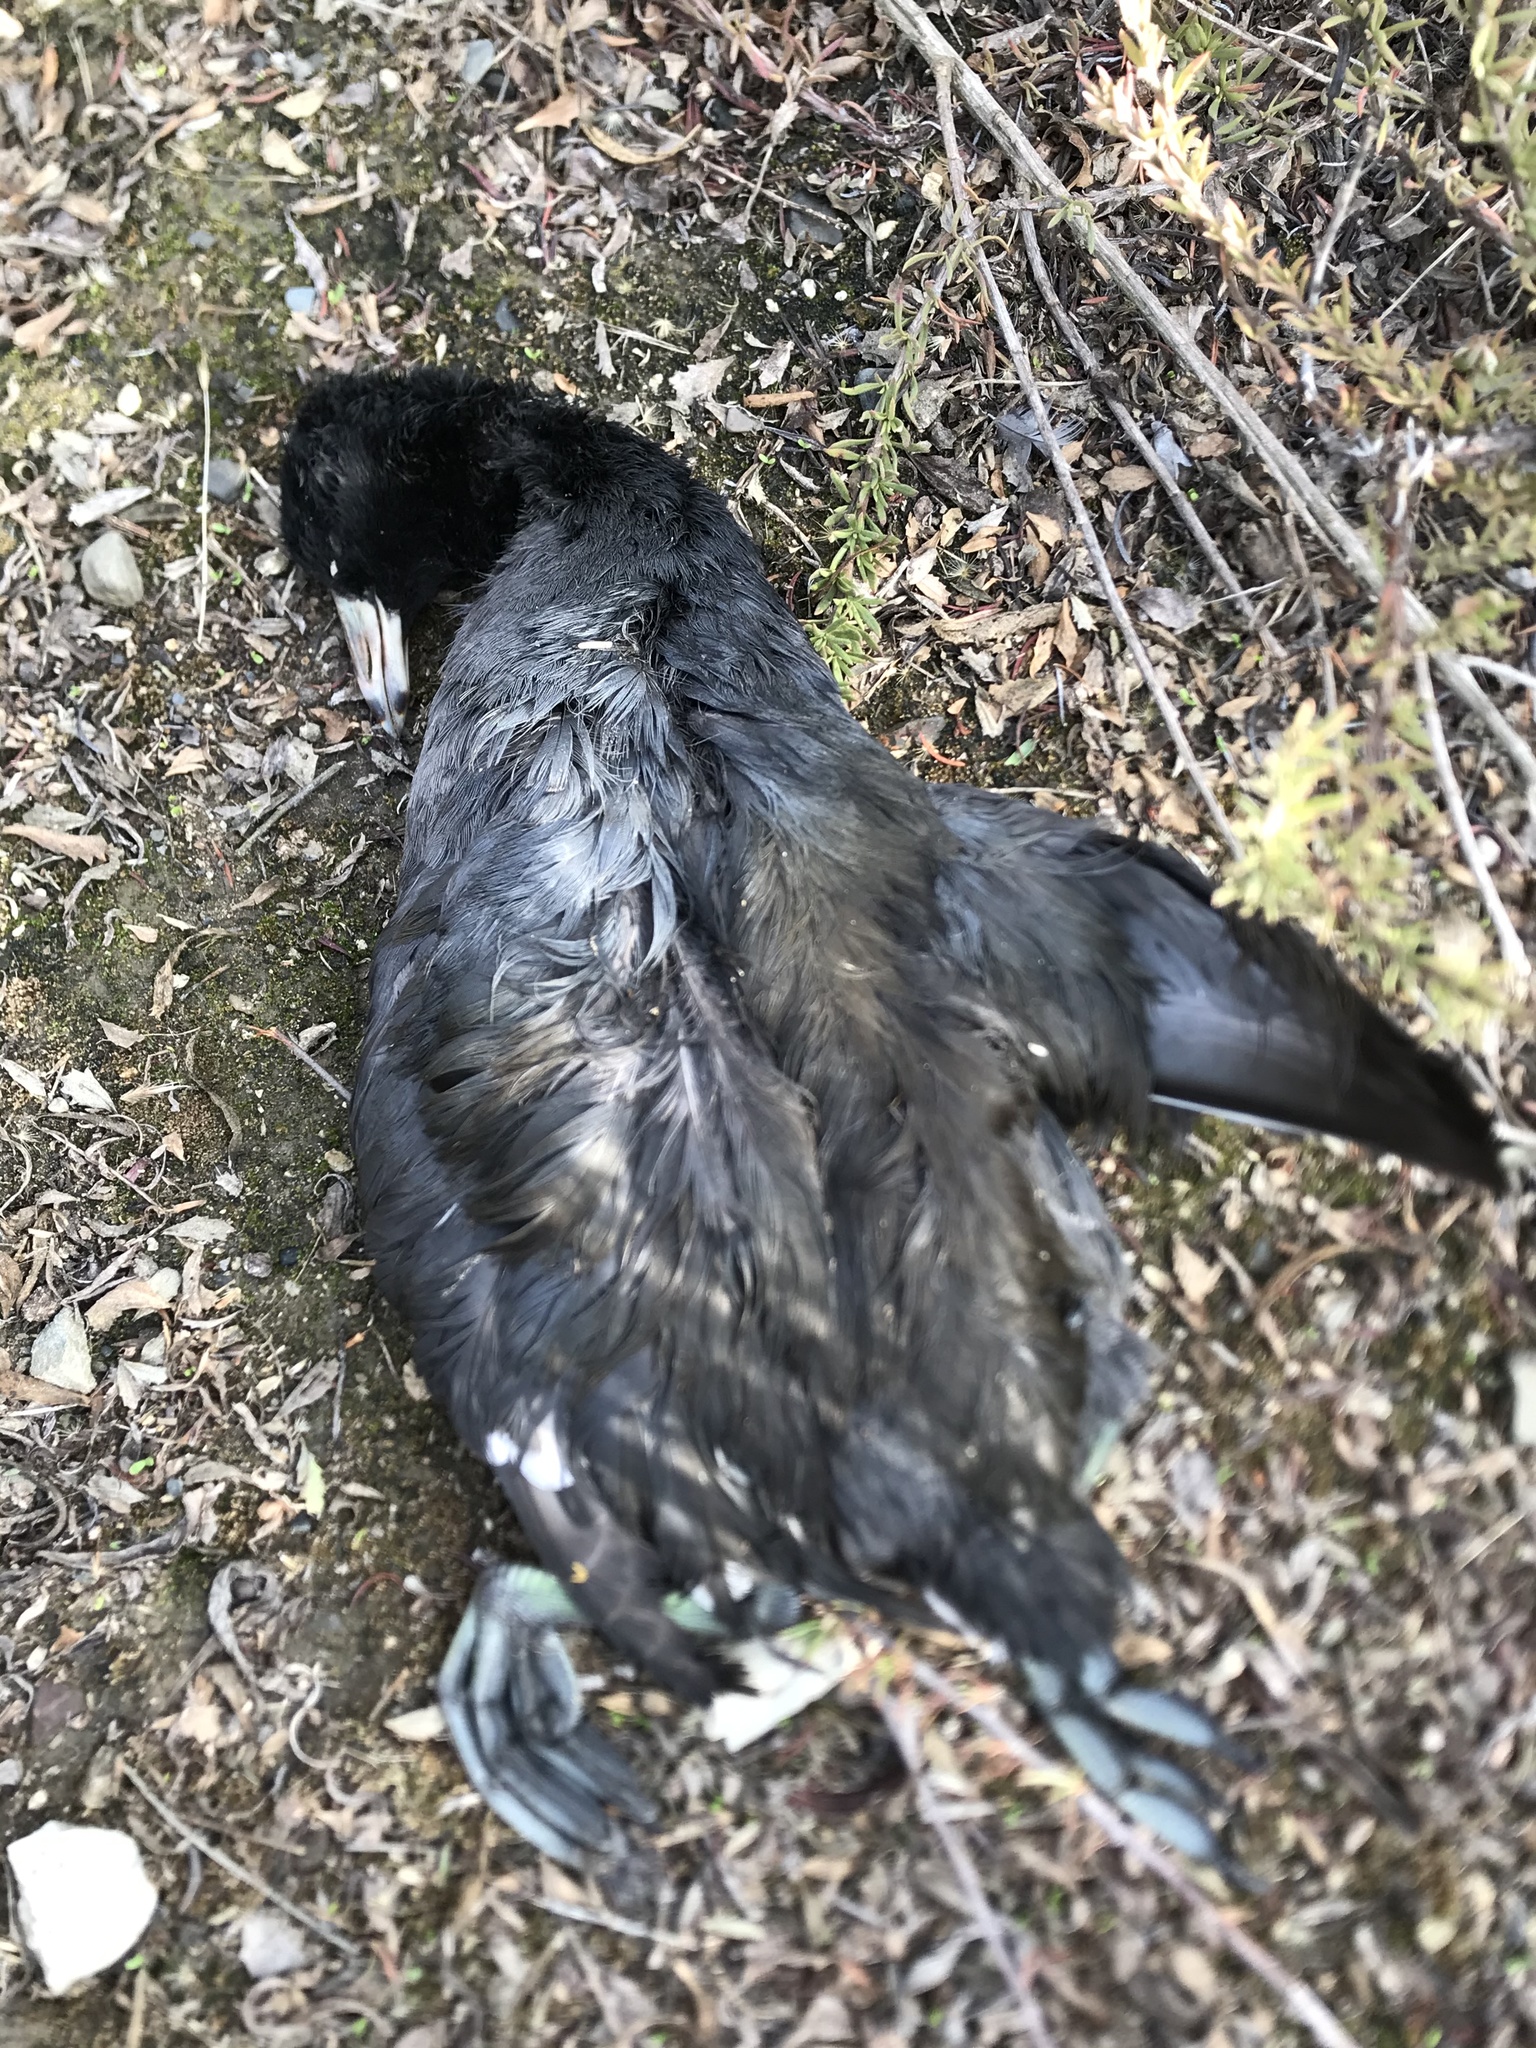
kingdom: Animalia
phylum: Chordata
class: Aves
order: Gruiformes
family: Rallidae
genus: Fulica
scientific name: Fulica americana
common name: American coot
